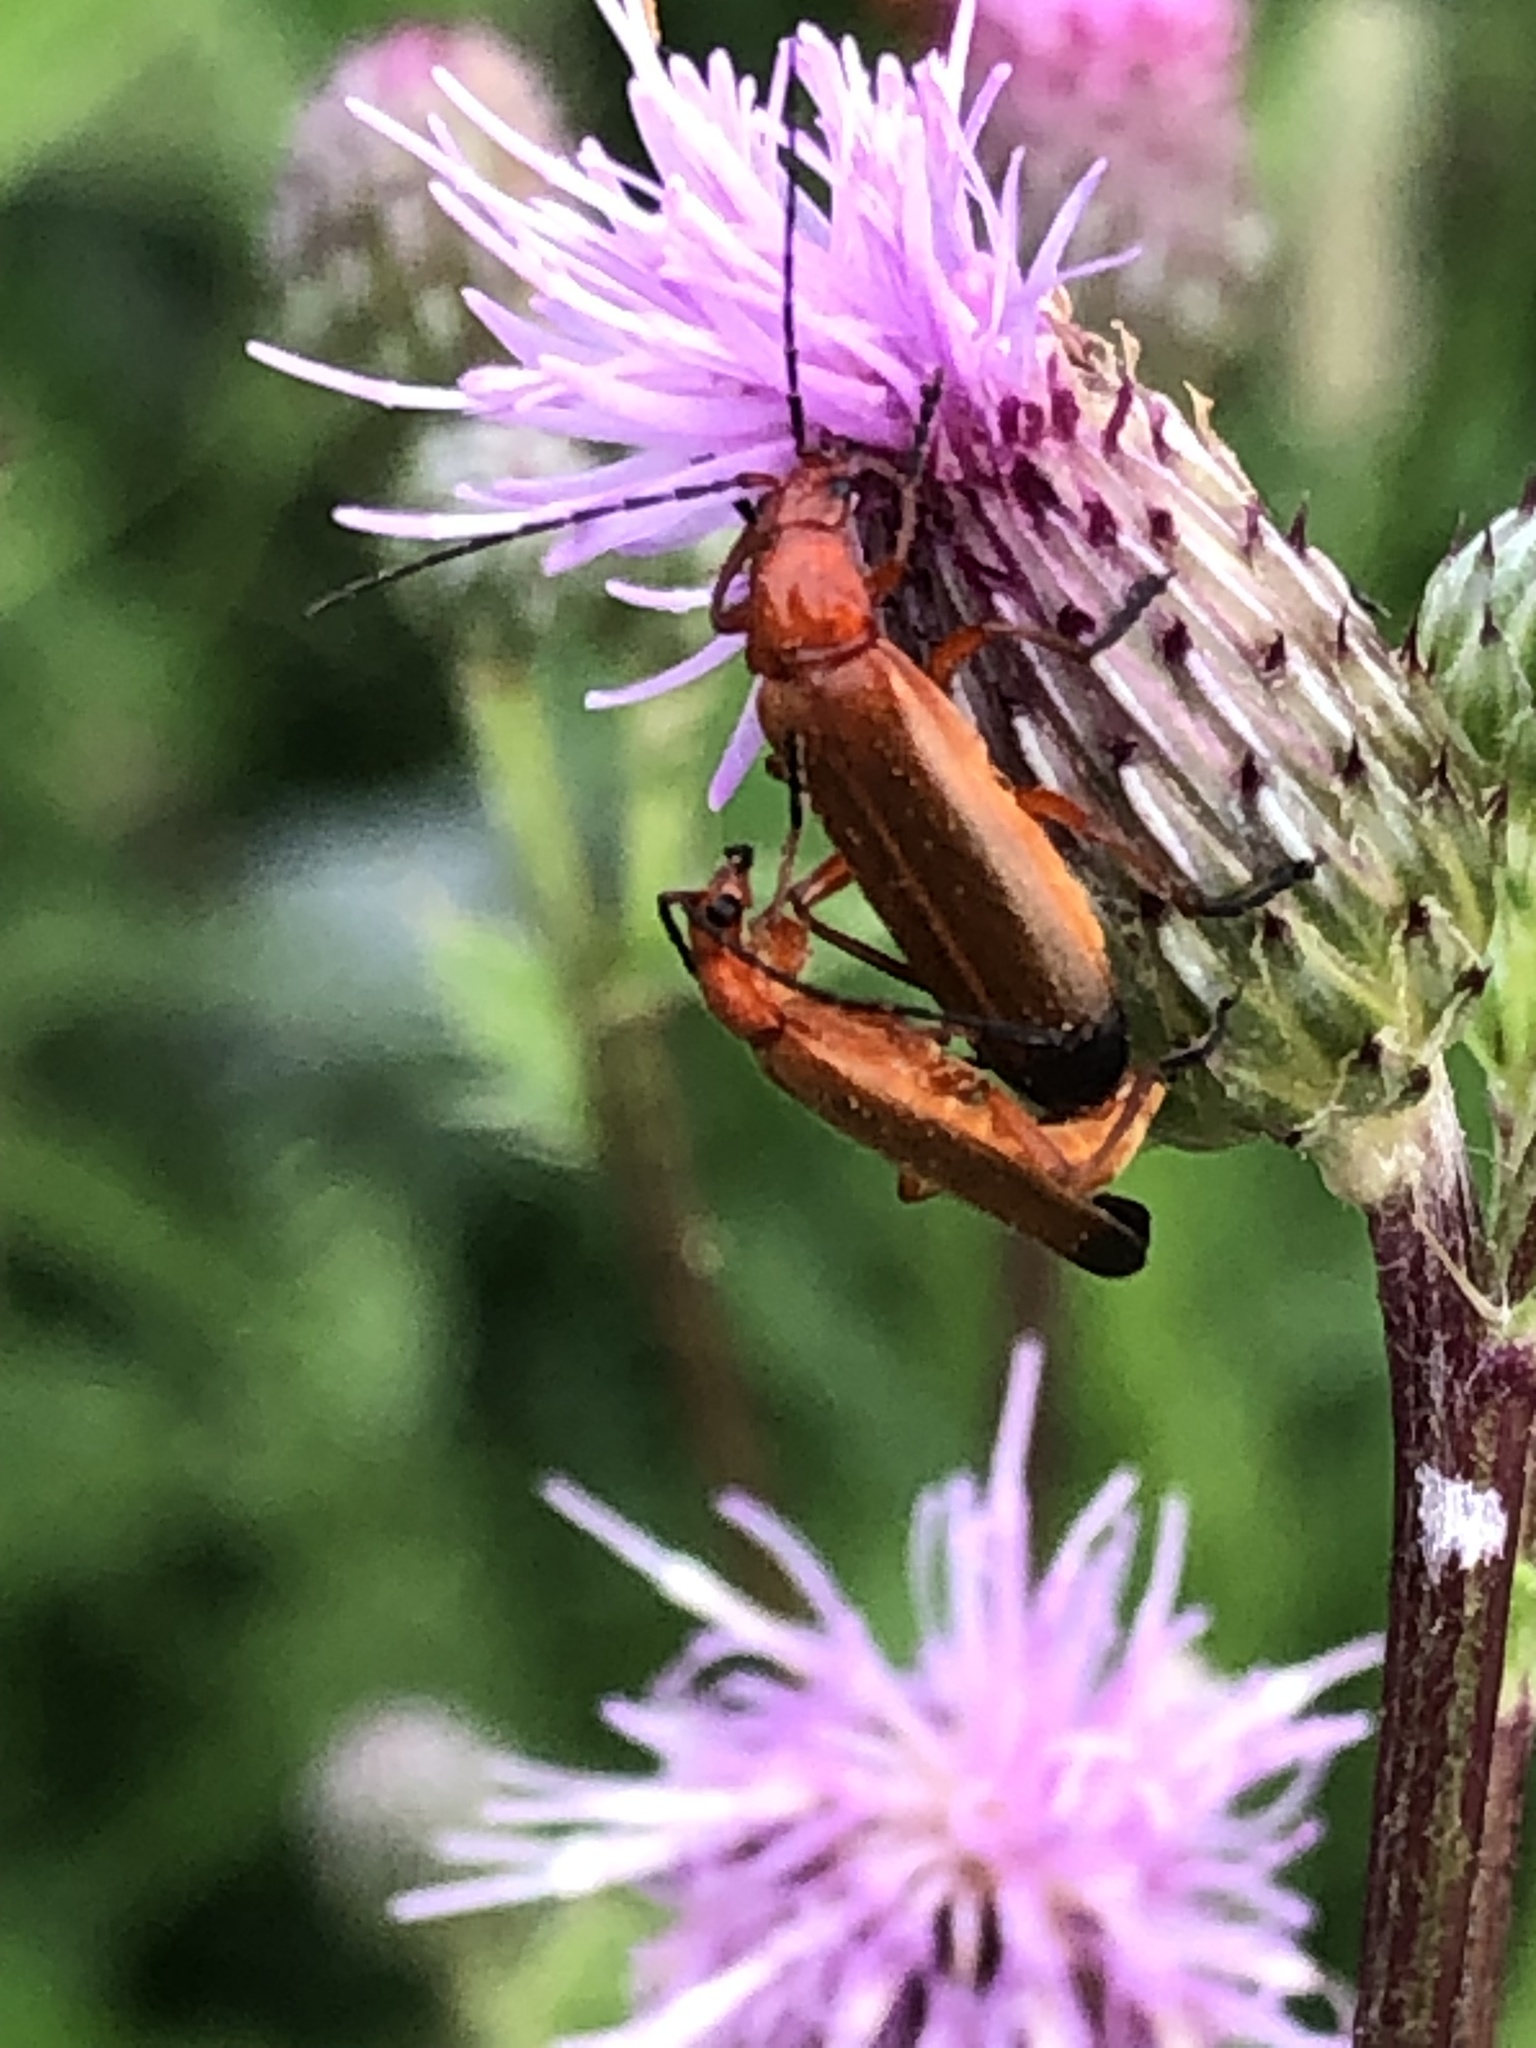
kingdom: Animalia
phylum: Arthropoda
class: Insecta
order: Coleoptera
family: Cantharidae
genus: Rhagonycha
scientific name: Rhagonycha fulva
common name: Common red soldier beetle
